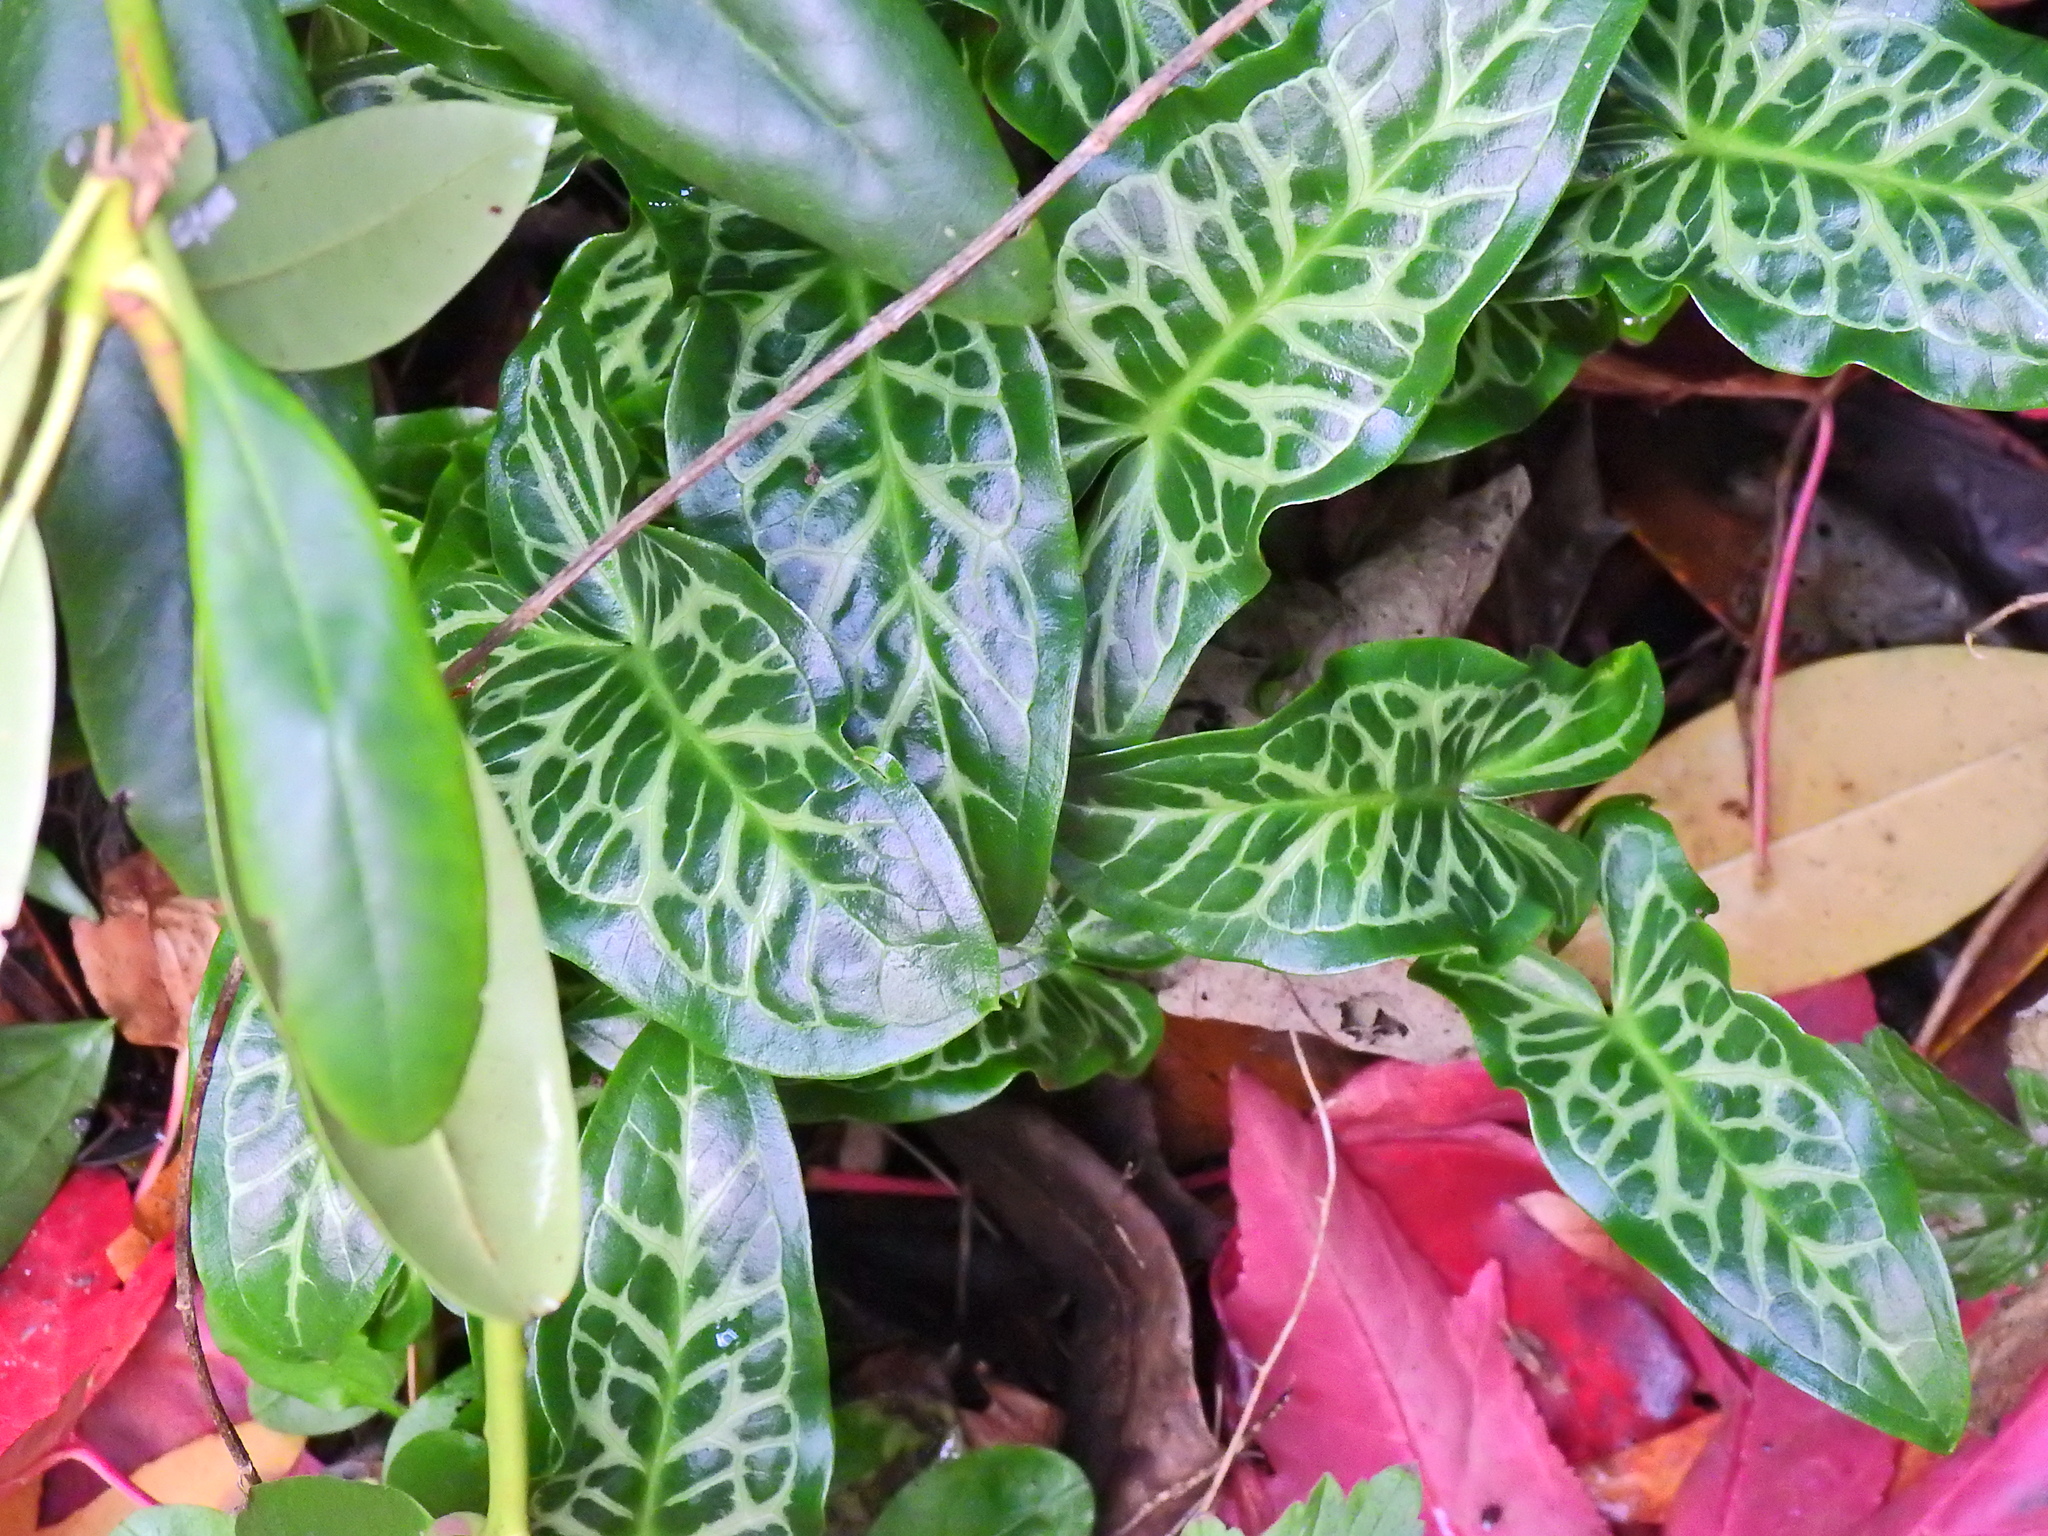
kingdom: Plantae
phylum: Tracheophyta
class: Liliopsida
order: Alismatales
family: Araceae
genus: Arum
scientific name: Arum italicum
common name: Italian lords-and-ladies
